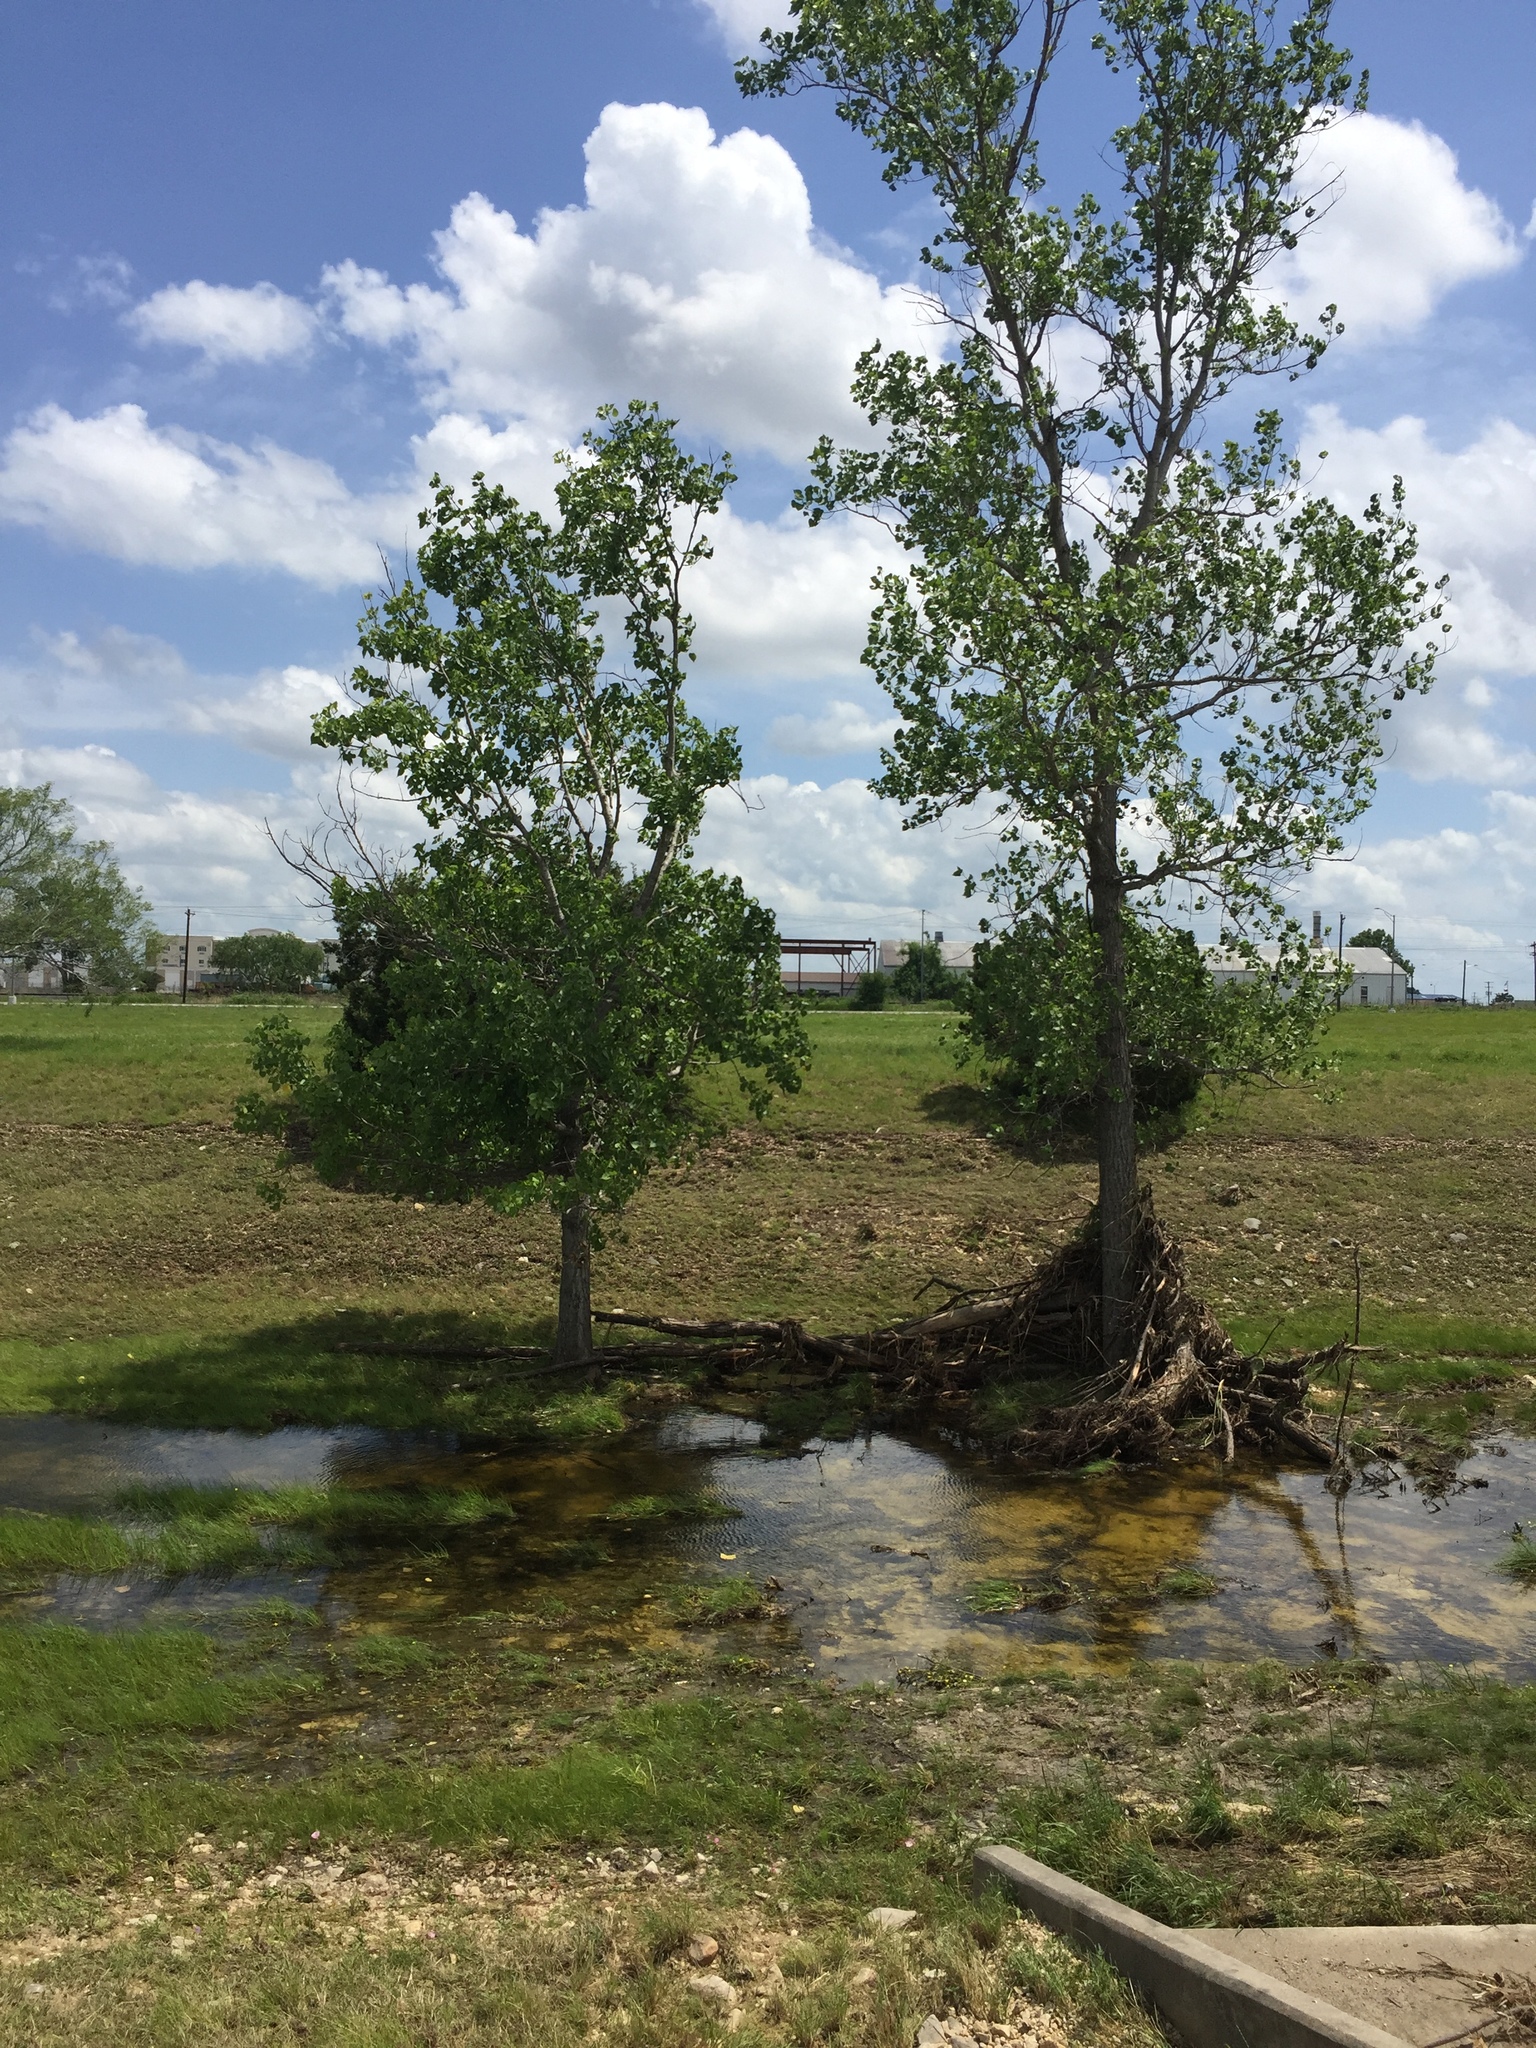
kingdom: Plantae
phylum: Tracheophyta
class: Magnoliopsida
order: Malpighiales
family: Salicaceae
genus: Populus
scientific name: Populus deltoides
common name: Eastern cottonwood
